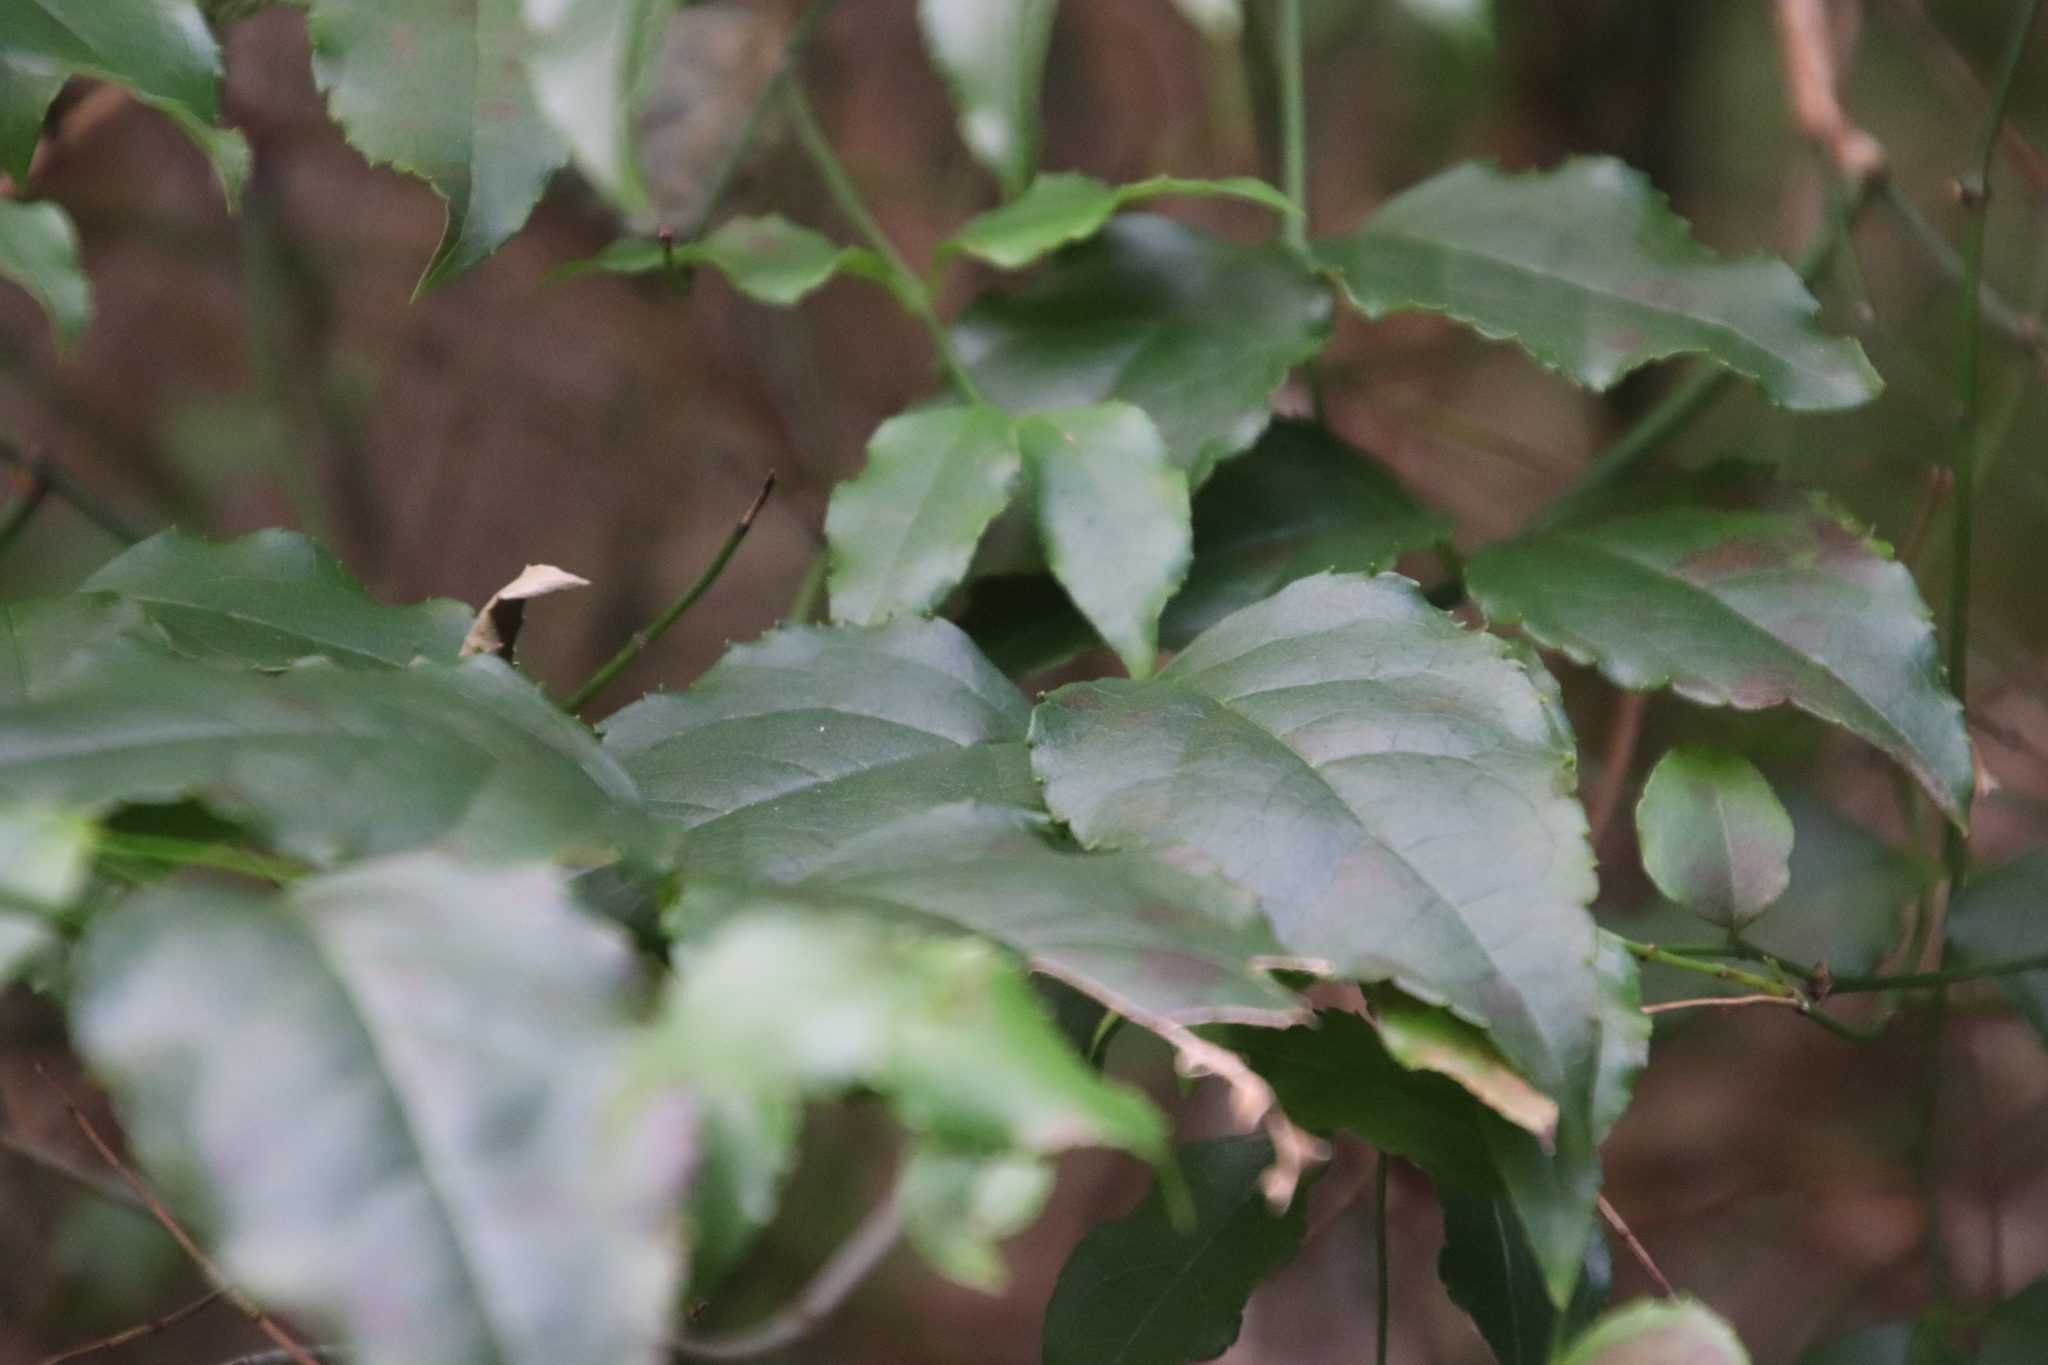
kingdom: Plantae
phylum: Tracheophyta
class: Magnoliopsida
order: Lamiales
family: Stilbaceae
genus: Halleria
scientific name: Halleria lucida
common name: Tree fuschia
